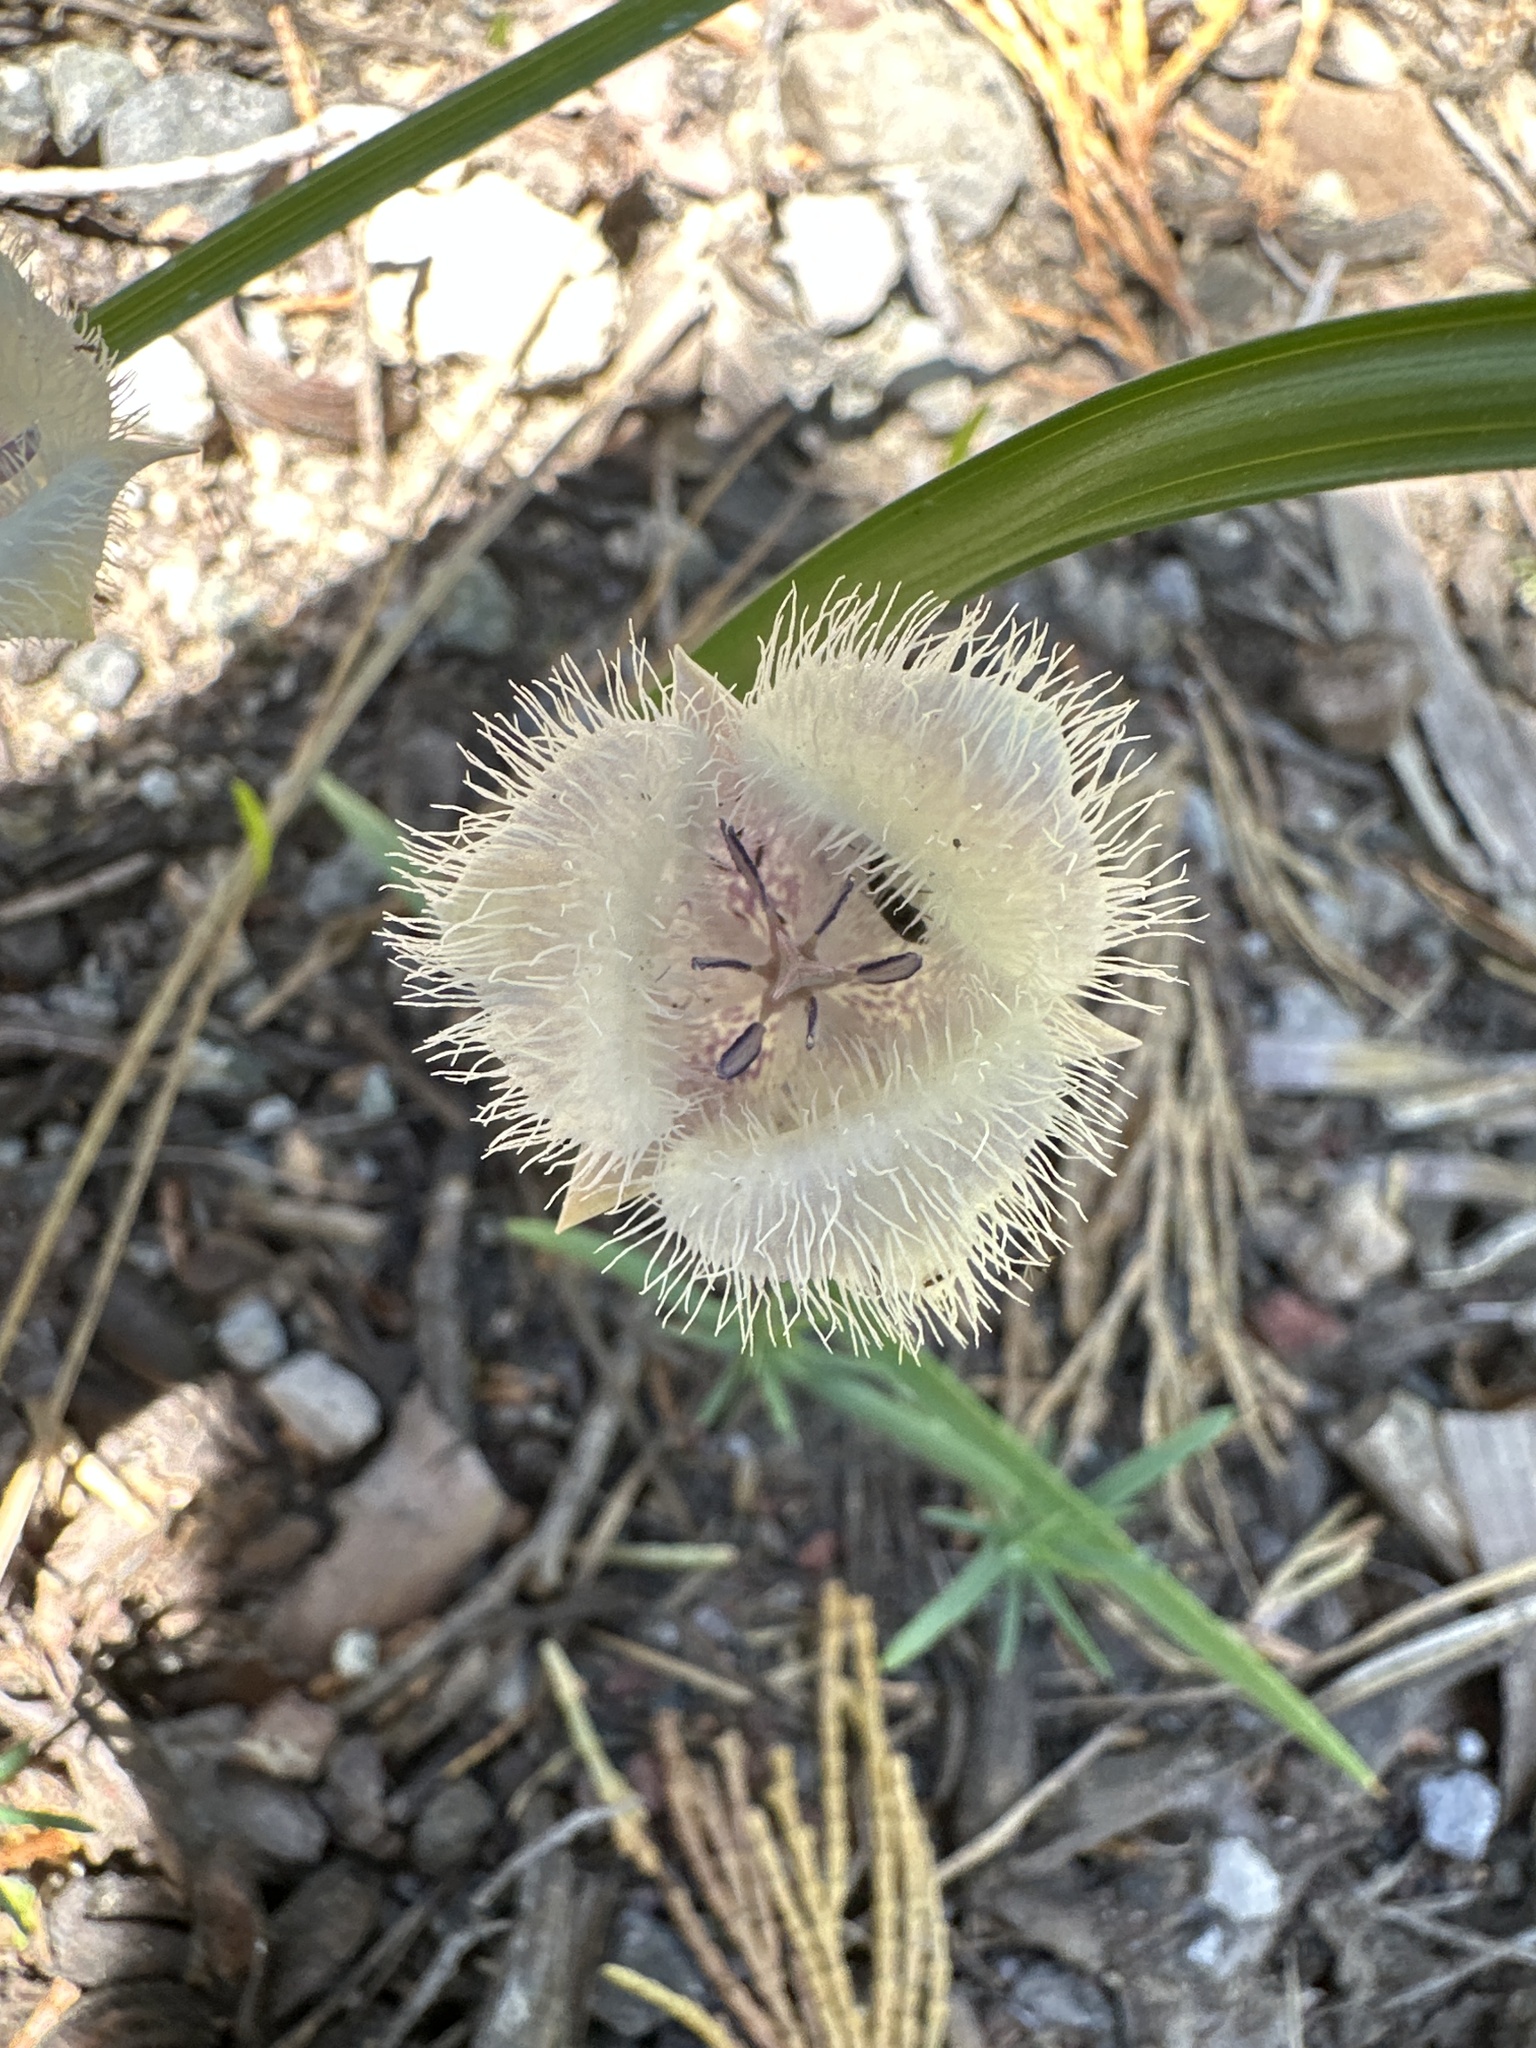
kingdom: Plantae
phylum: Tracheophyta
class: Liliopsida
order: Liliales
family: Liliaceae
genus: Calochortus
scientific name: Calochortus coeruleus
